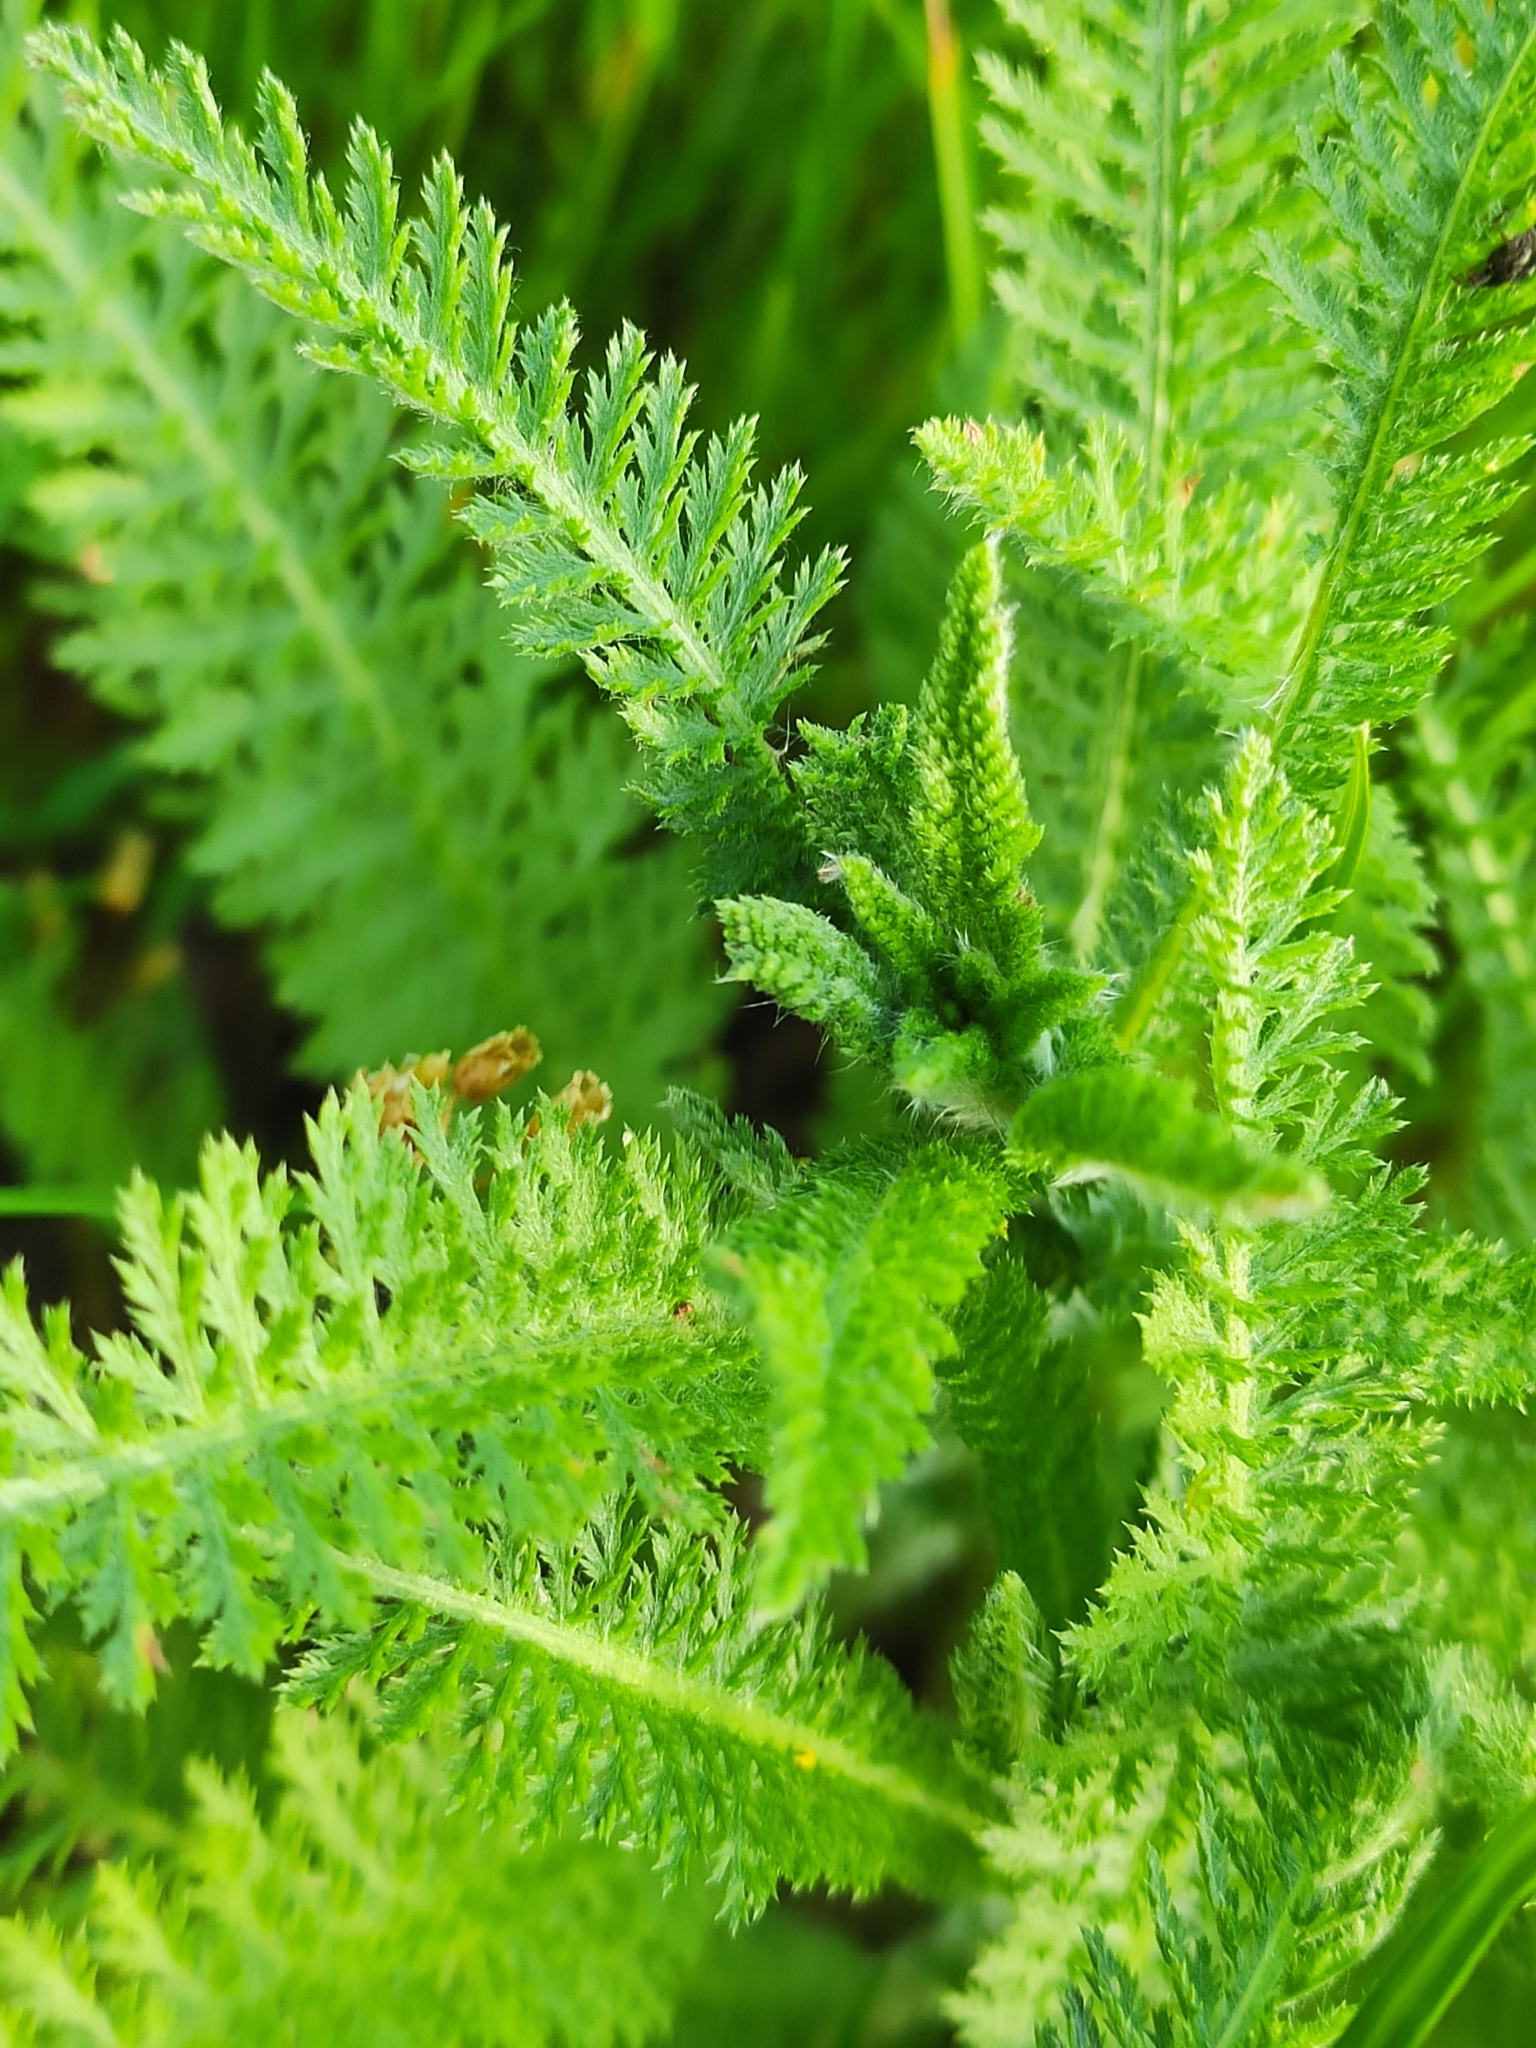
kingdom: Plantae
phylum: Tracheophyta
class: Magnoliopsida
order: Asterales
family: Asteraceae
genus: Achillea
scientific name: Achillea millefolium
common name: Yarrow
